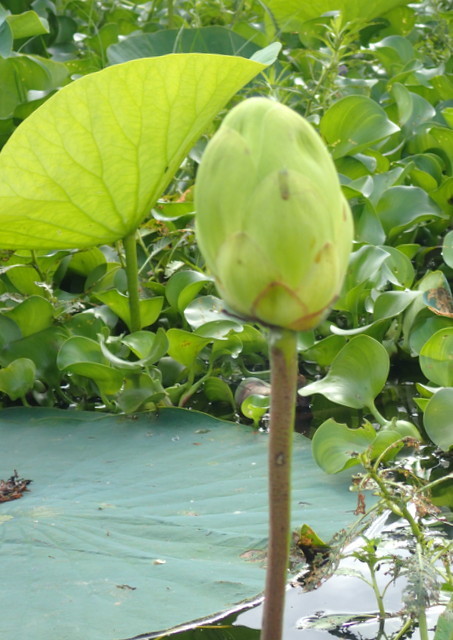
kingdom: Plantae
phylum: Tracheophyta
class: Magnoliopsida
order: Proteales
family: Nelumbonaceae
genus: Nelumbo
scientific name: Nelumbo lutea
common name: American lotus
